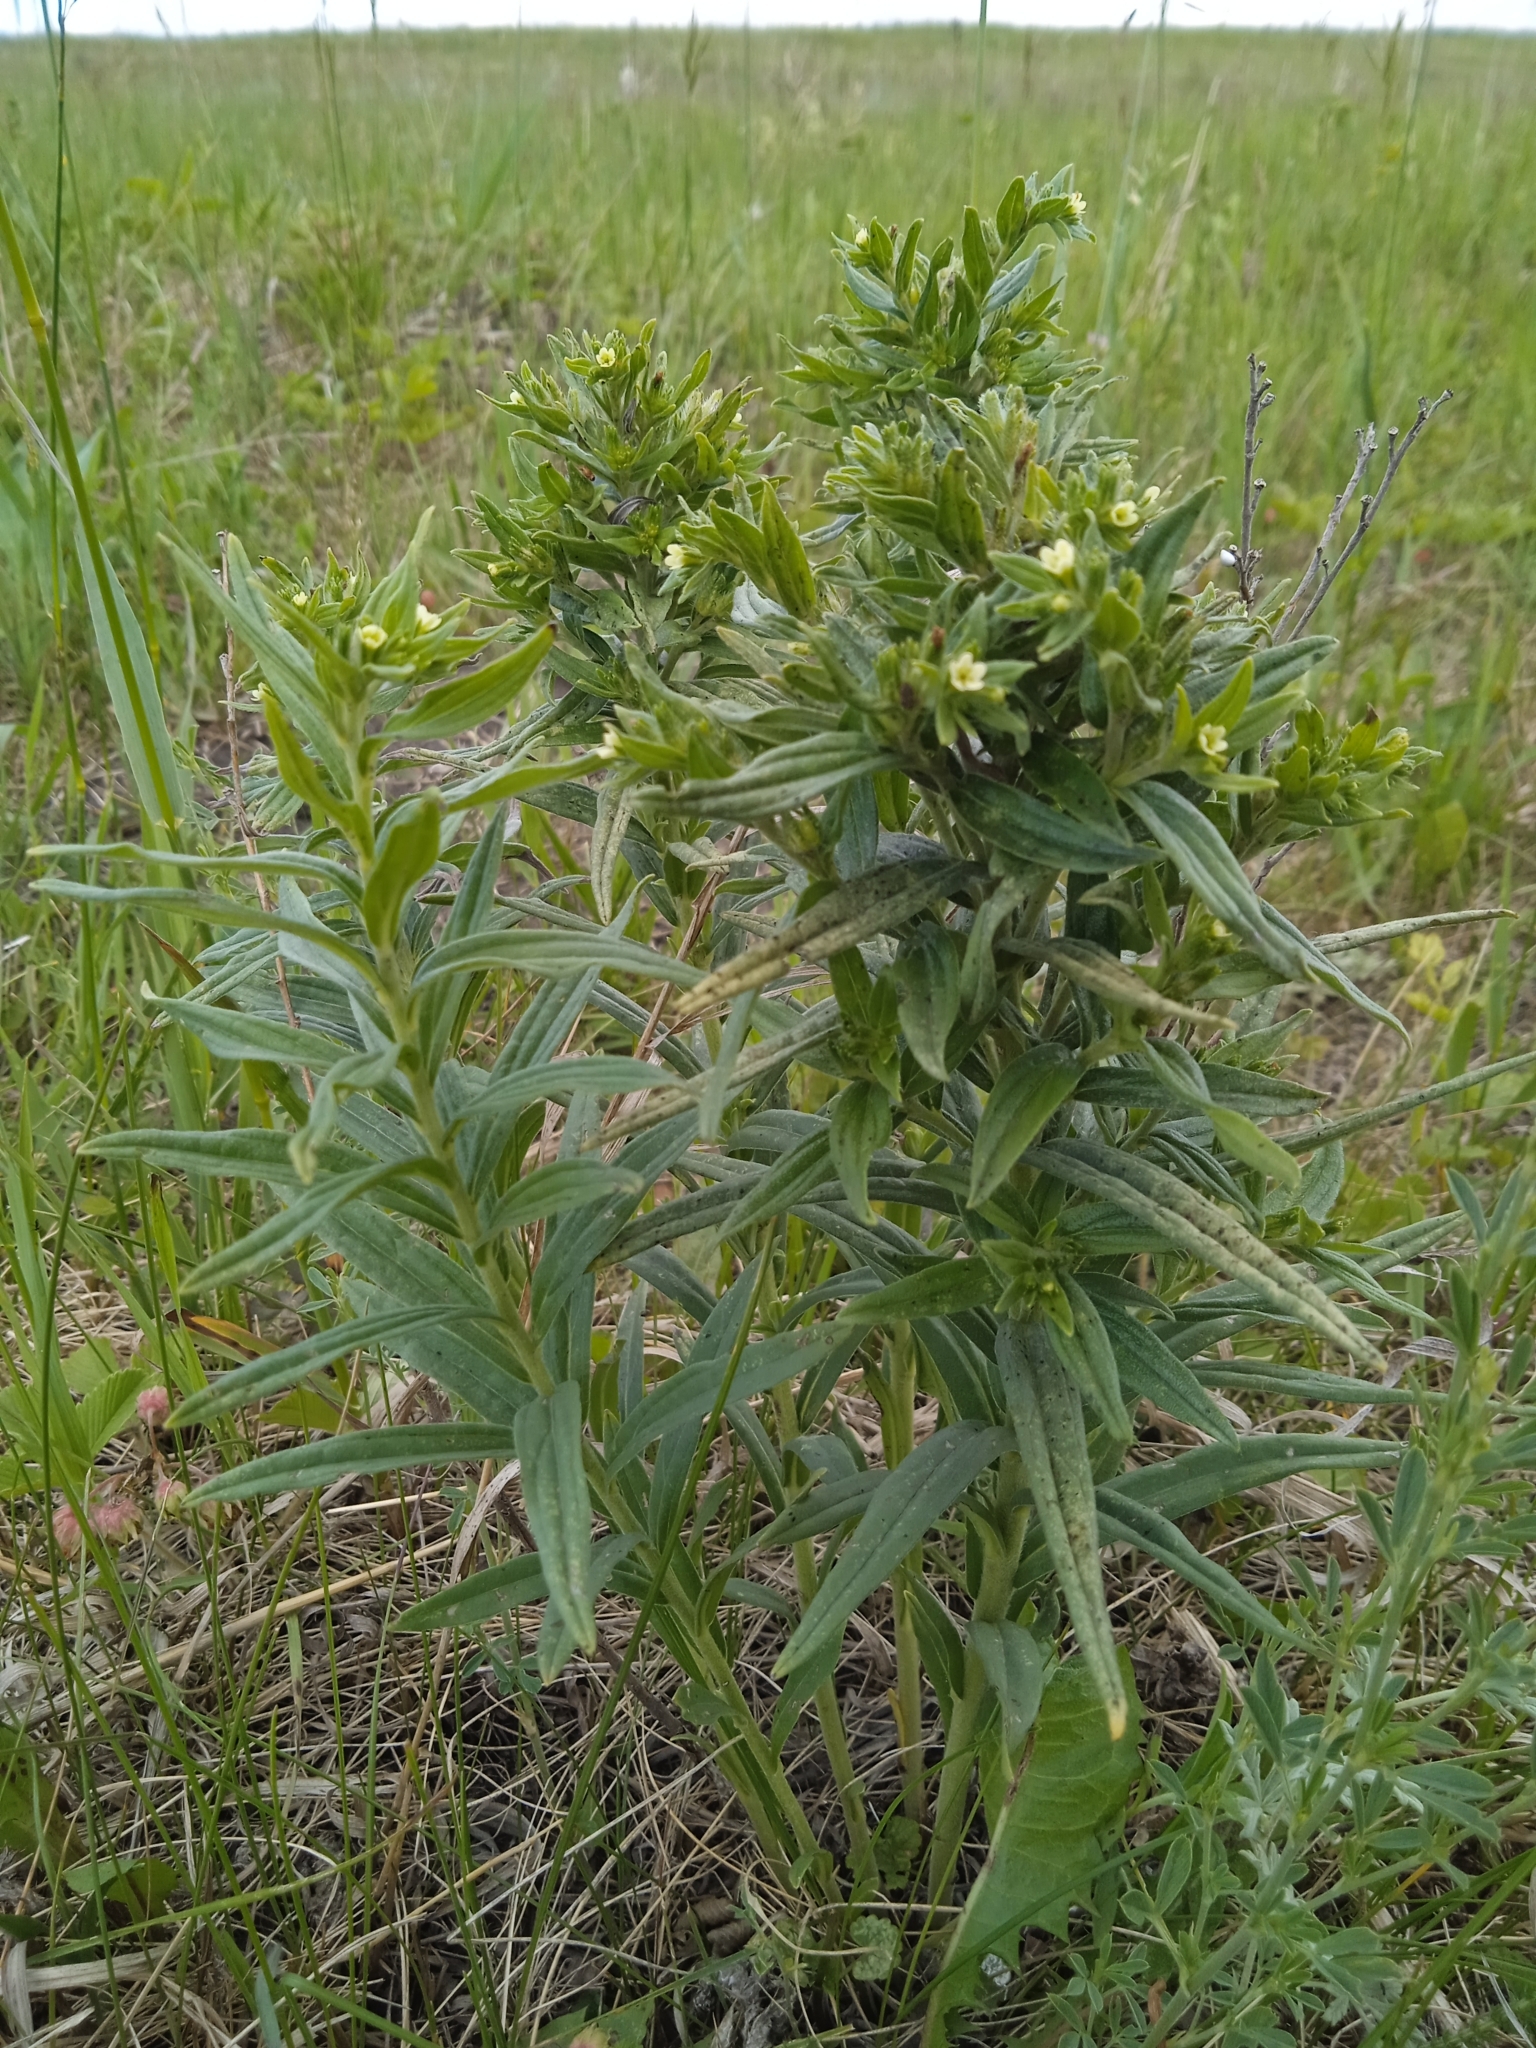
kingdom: Plantae
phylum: Tracheophyta
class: Magnoliopsida
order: Boraginales
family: Boraginaceae
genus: Lithospermum
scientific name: Lithospermum officinale
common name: Common gromwell
